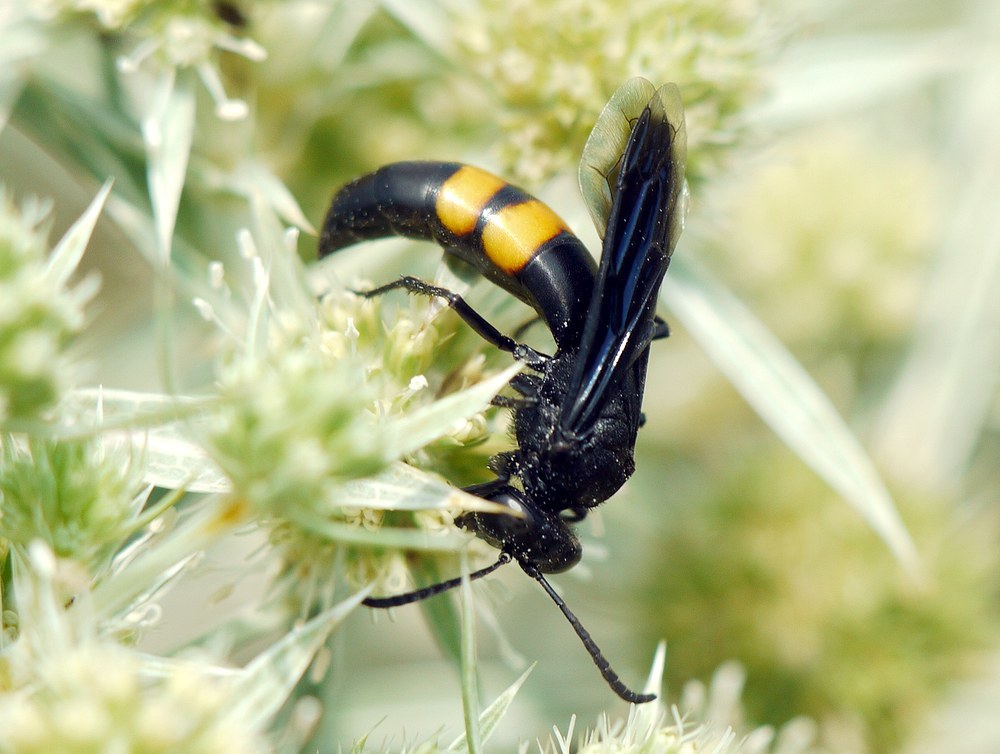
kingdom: Animalia
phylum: Arthropoda
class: Insecta
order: Hymenoptera
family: Crabronidae
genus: Stizoides
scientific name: Stizoides tridentatus
